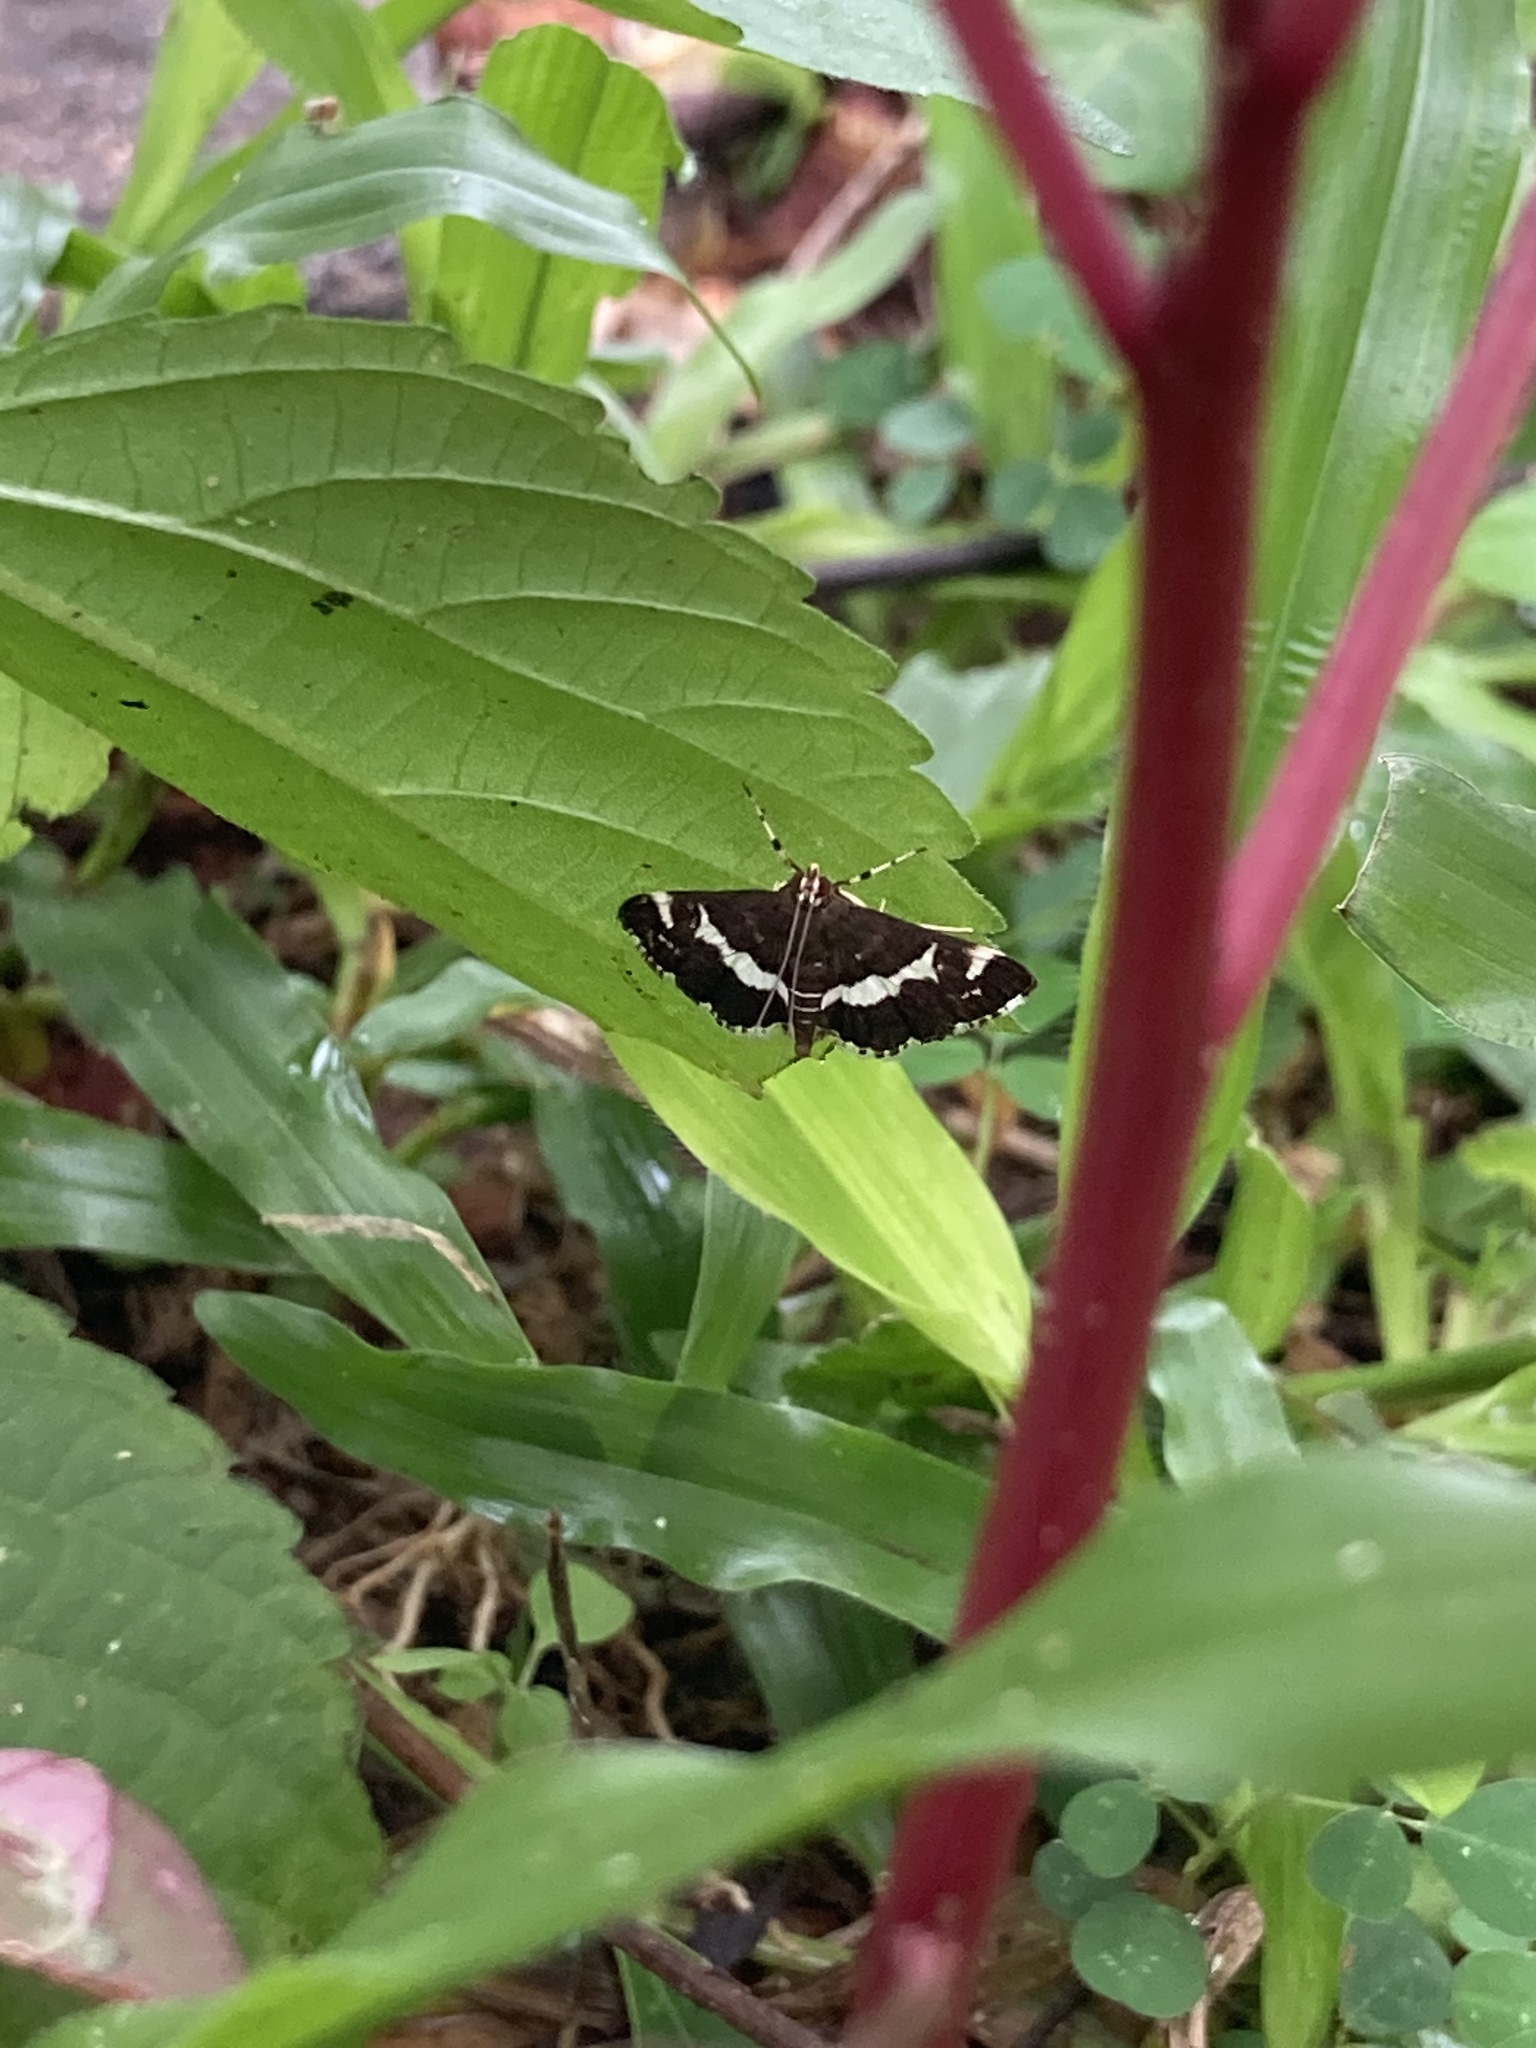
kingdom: Animalia
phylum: Arthropoda
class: Insecta
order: Lepidoptera
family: Crambidae
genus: Spoladea
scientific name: Spoladea recurvalis
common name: Beet webworm moth
